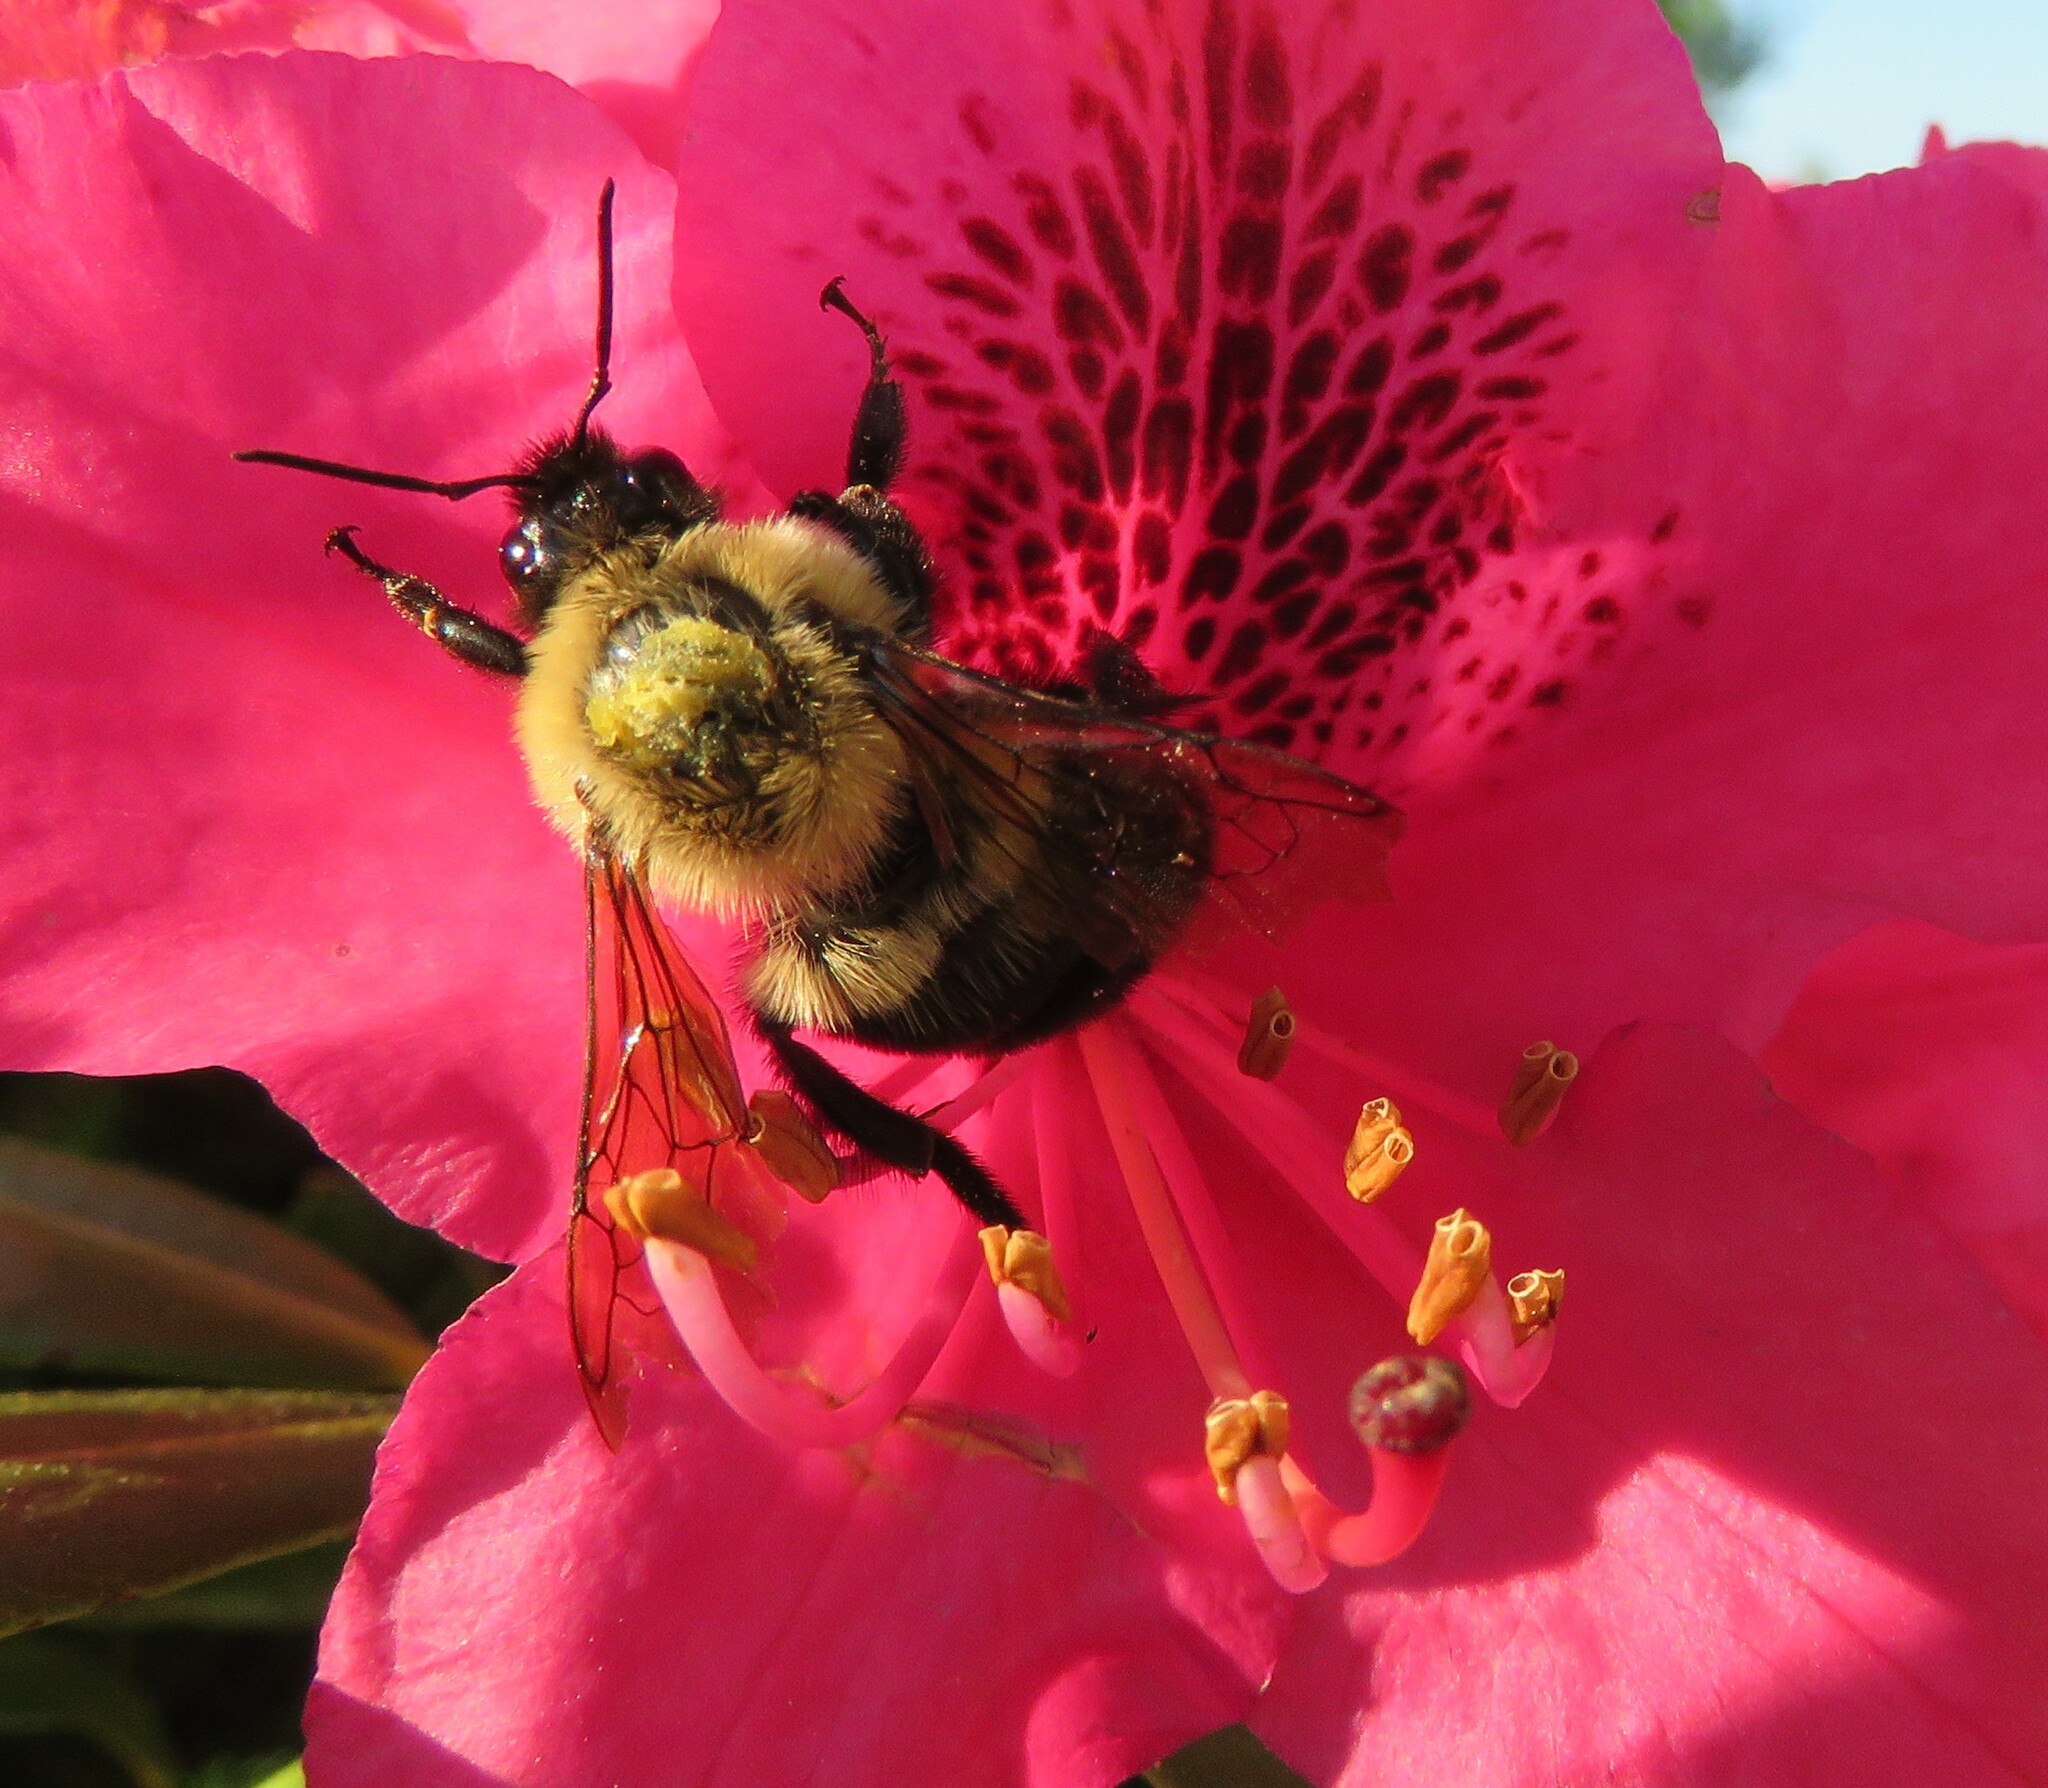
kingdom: Animalia
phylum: Arthropoda
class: Insecta
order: Hymenoptera
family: Apidae
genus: Bombus
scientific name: Bombus bimaculatus
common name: Two-spotted bumble bee
